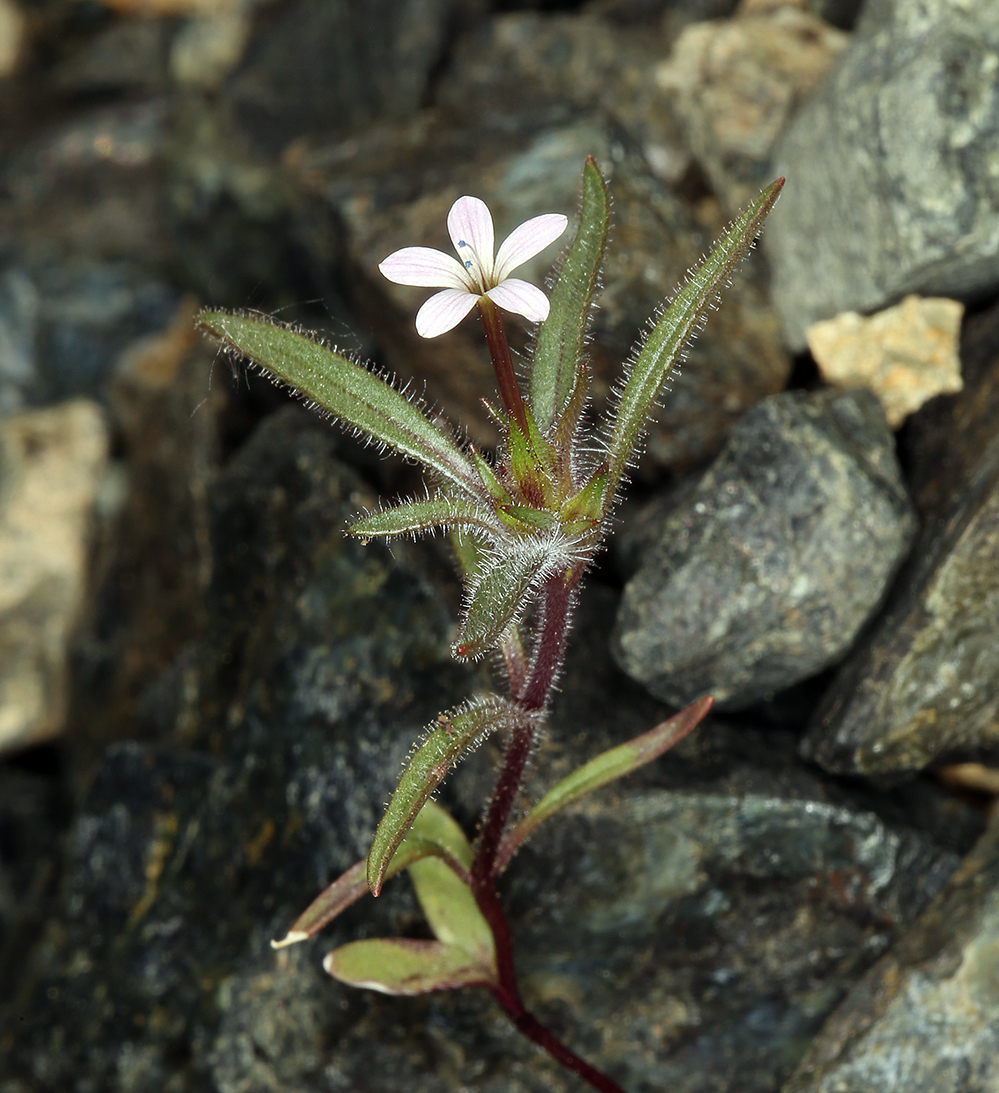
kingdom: Plantae
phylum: Tracheophyta
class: Magnoliopsida
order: Ericales
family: Polemoniaceae
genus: Collomia
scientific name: Collomia tracyi
